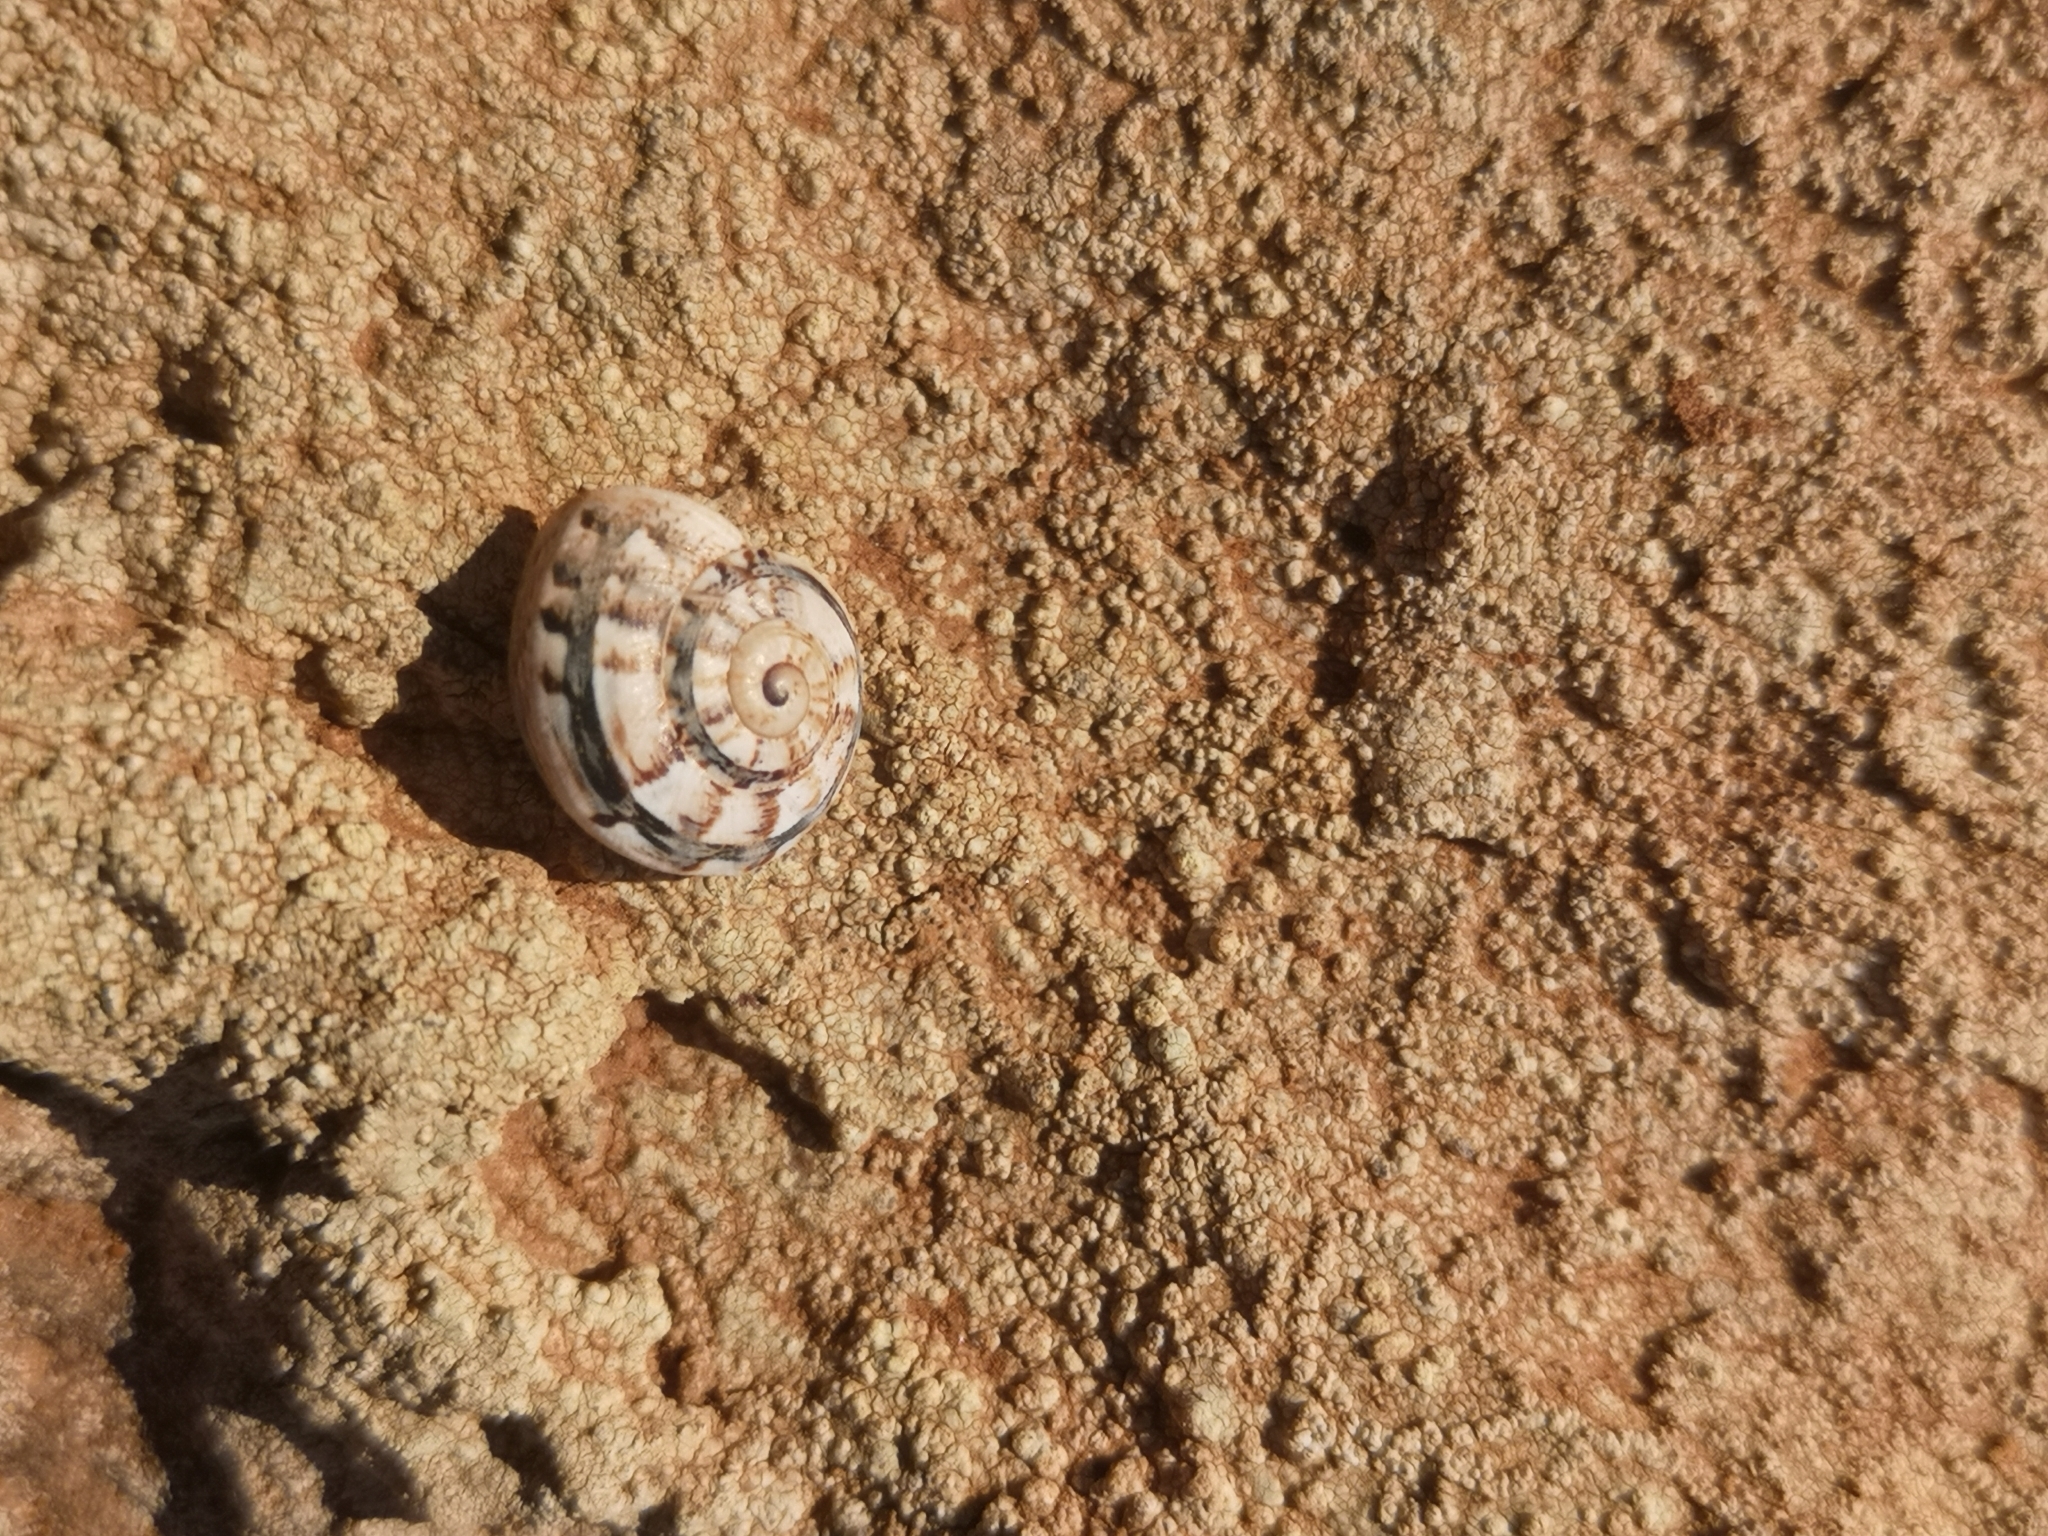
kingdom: Animalia
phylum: Mollusca
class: Gastropoda
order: Stylommatophora
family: Helicidae
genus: Theba
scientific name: Theba geminata
